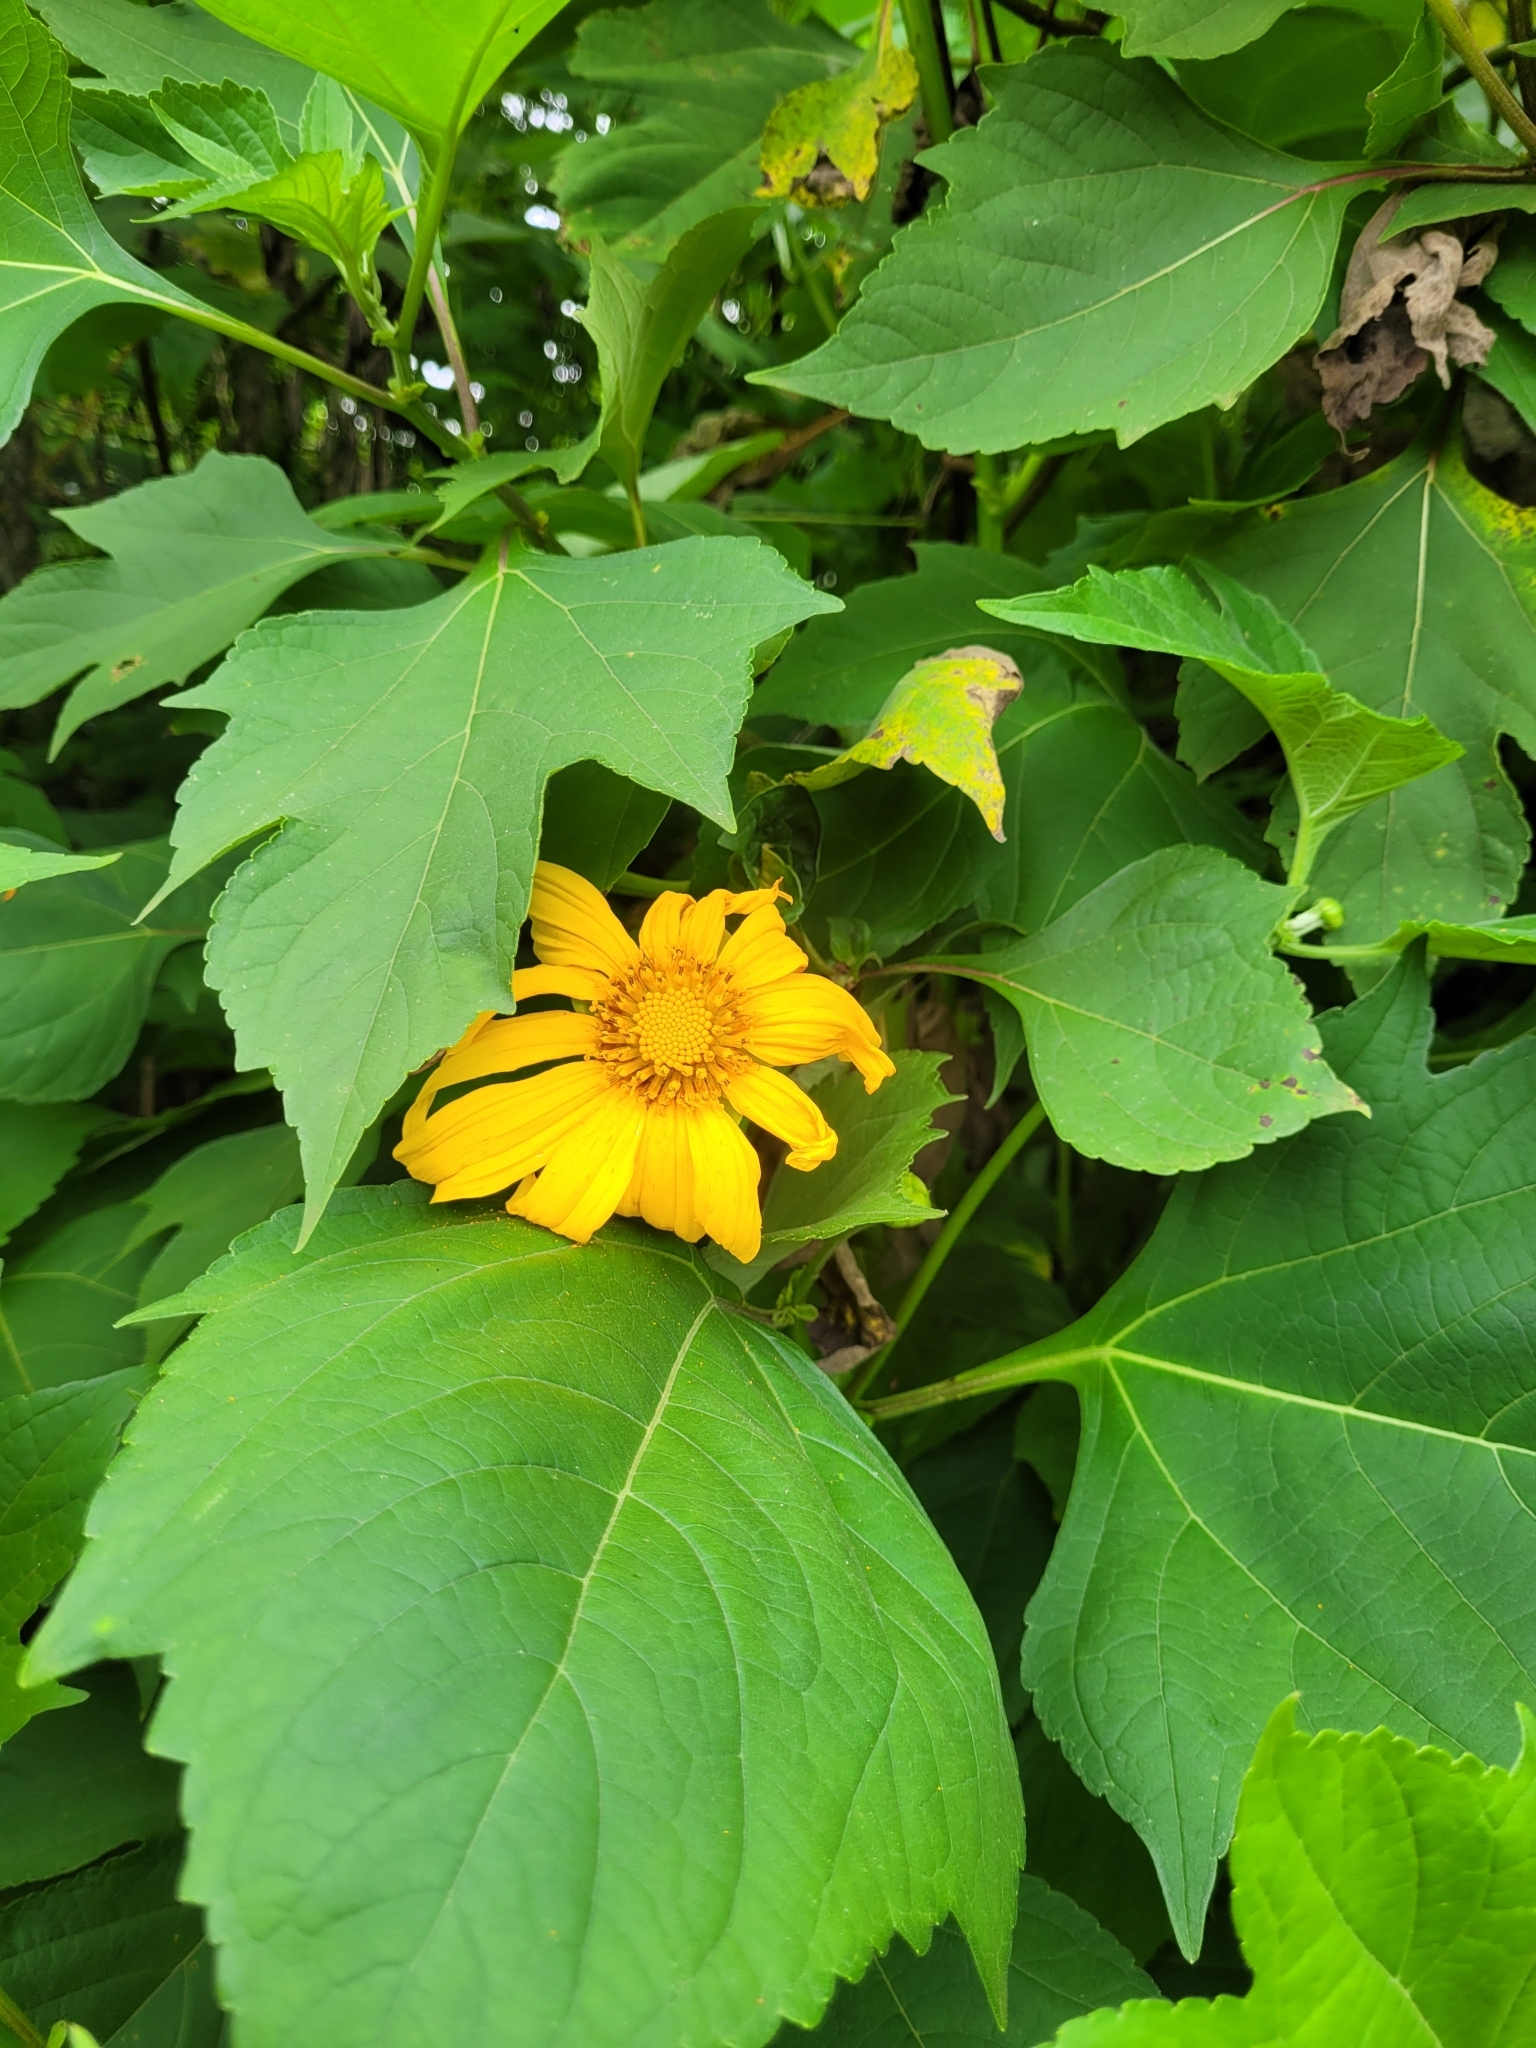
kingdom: Plantae
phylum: Tracheophyta
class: Magnoliopsida
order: Asterales
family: Asteraceae
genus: Tithonia
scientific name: Tithonia diversifolia
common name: Tree marigold
